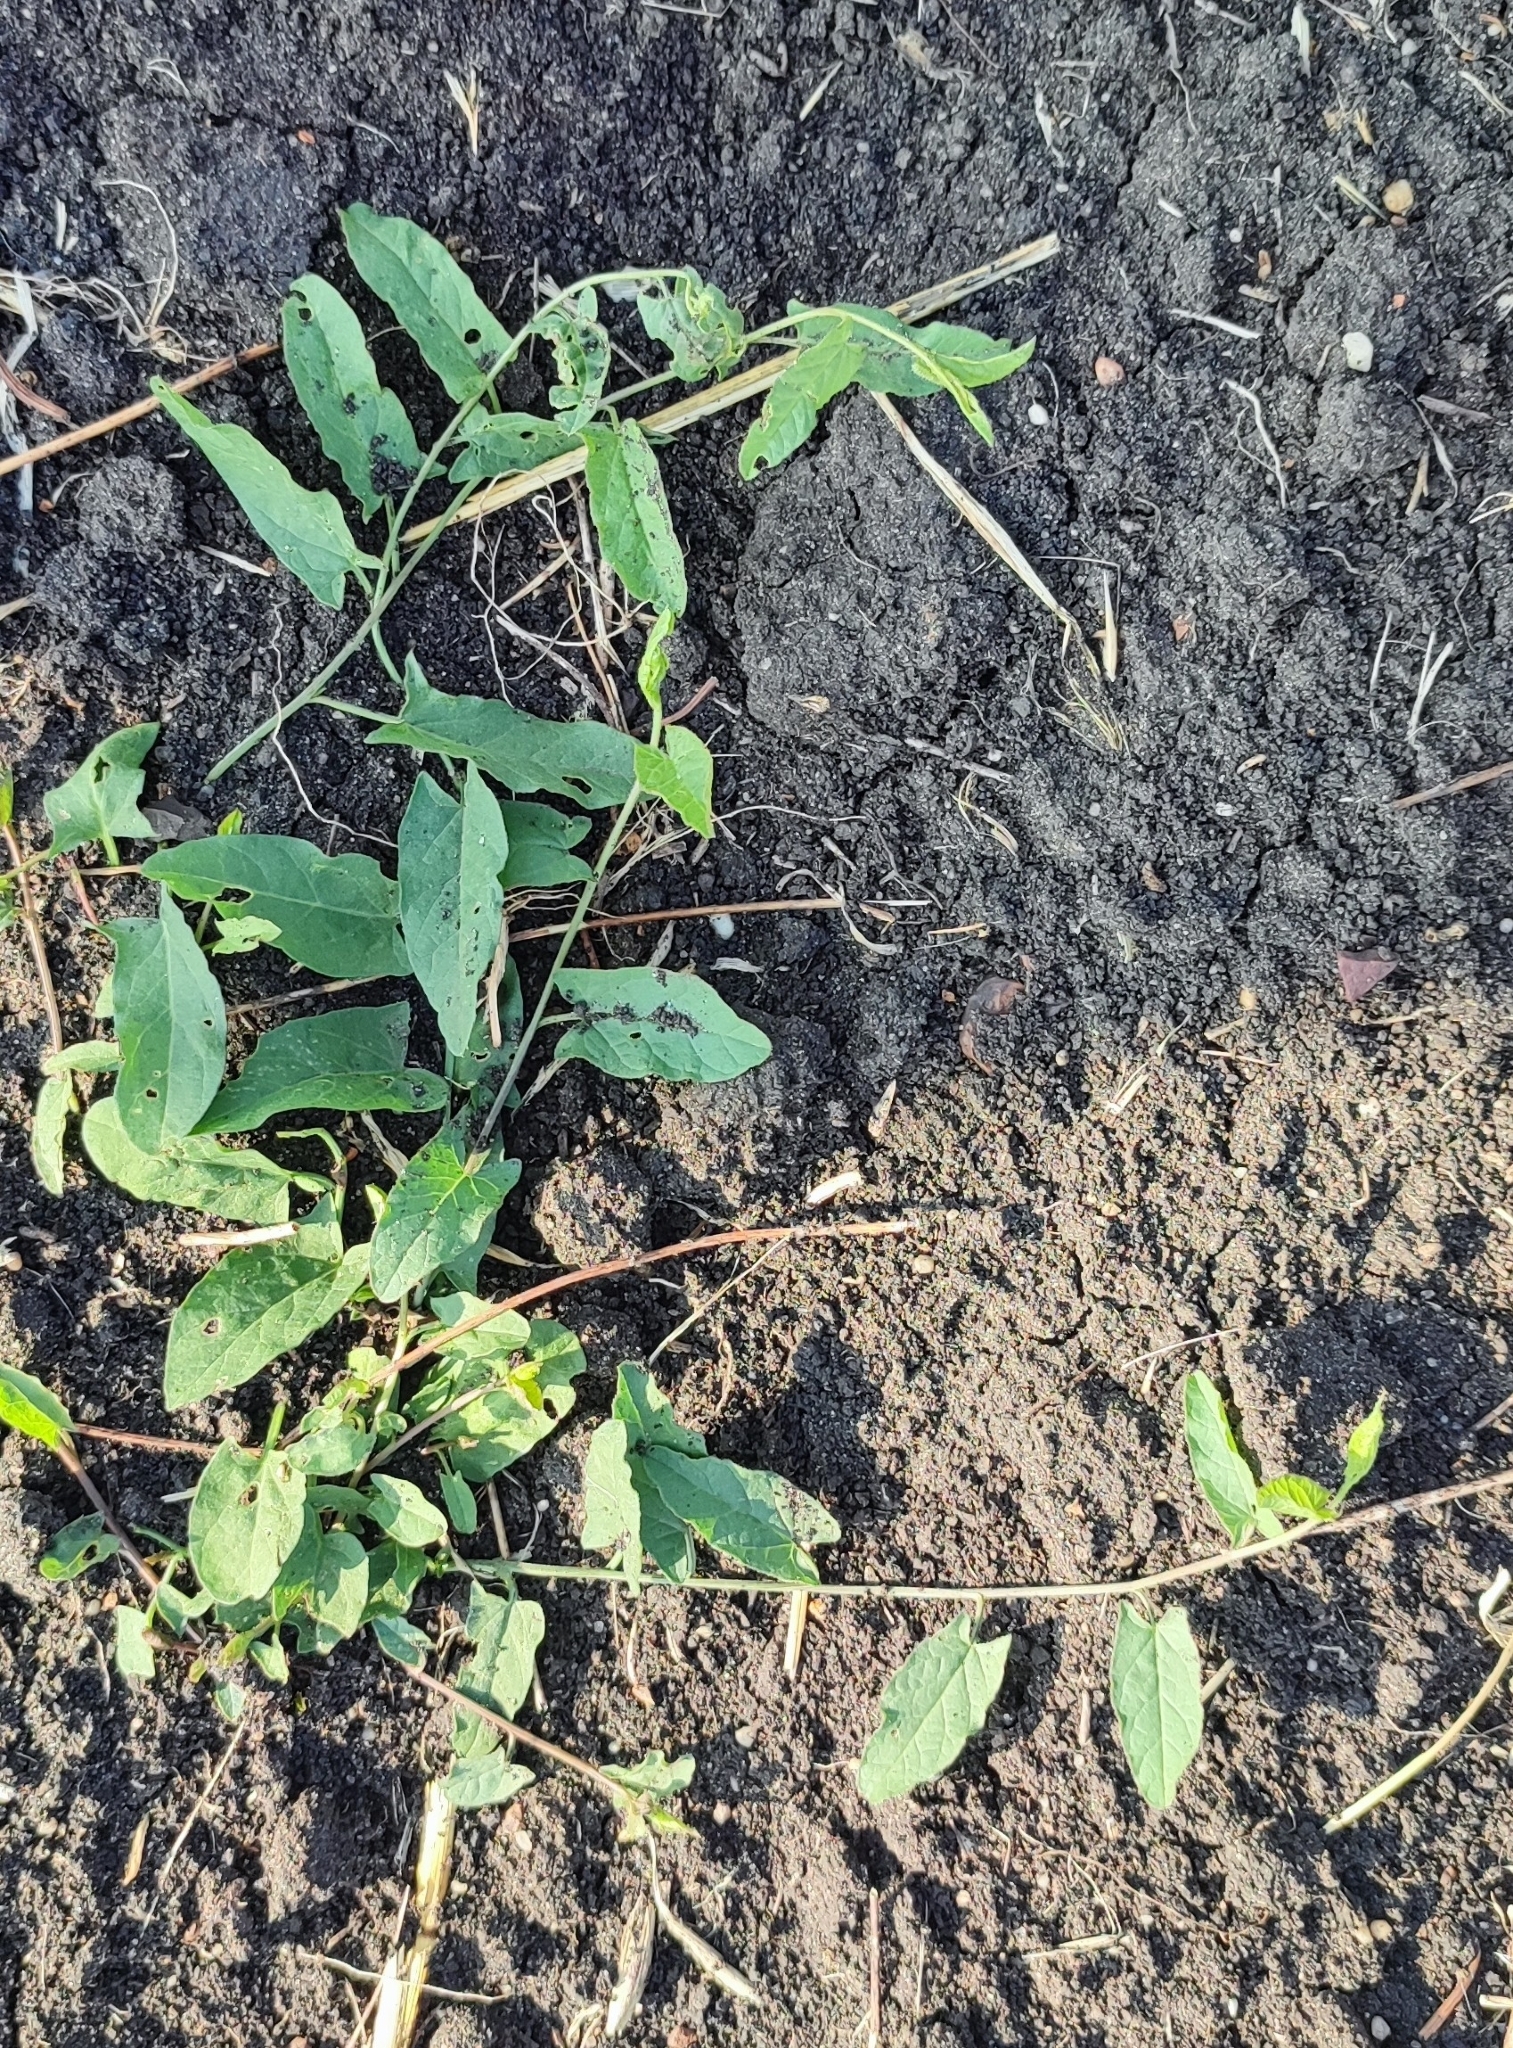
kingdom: Plantae
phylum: Tracheophyta
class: Magnoliopsida
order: Solanales
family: Convolvulaceae
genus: Convolvulus
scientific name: Convolvulus arvensis
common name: Field bindweed
